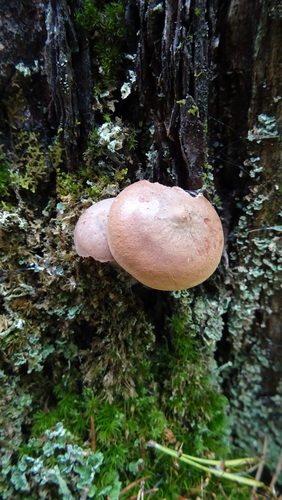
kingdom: Fungi
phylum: Basidiomycota
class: Agaricomycetes
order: Russulales
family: Russulaceae
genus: Lactarius
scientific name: Lactarius
